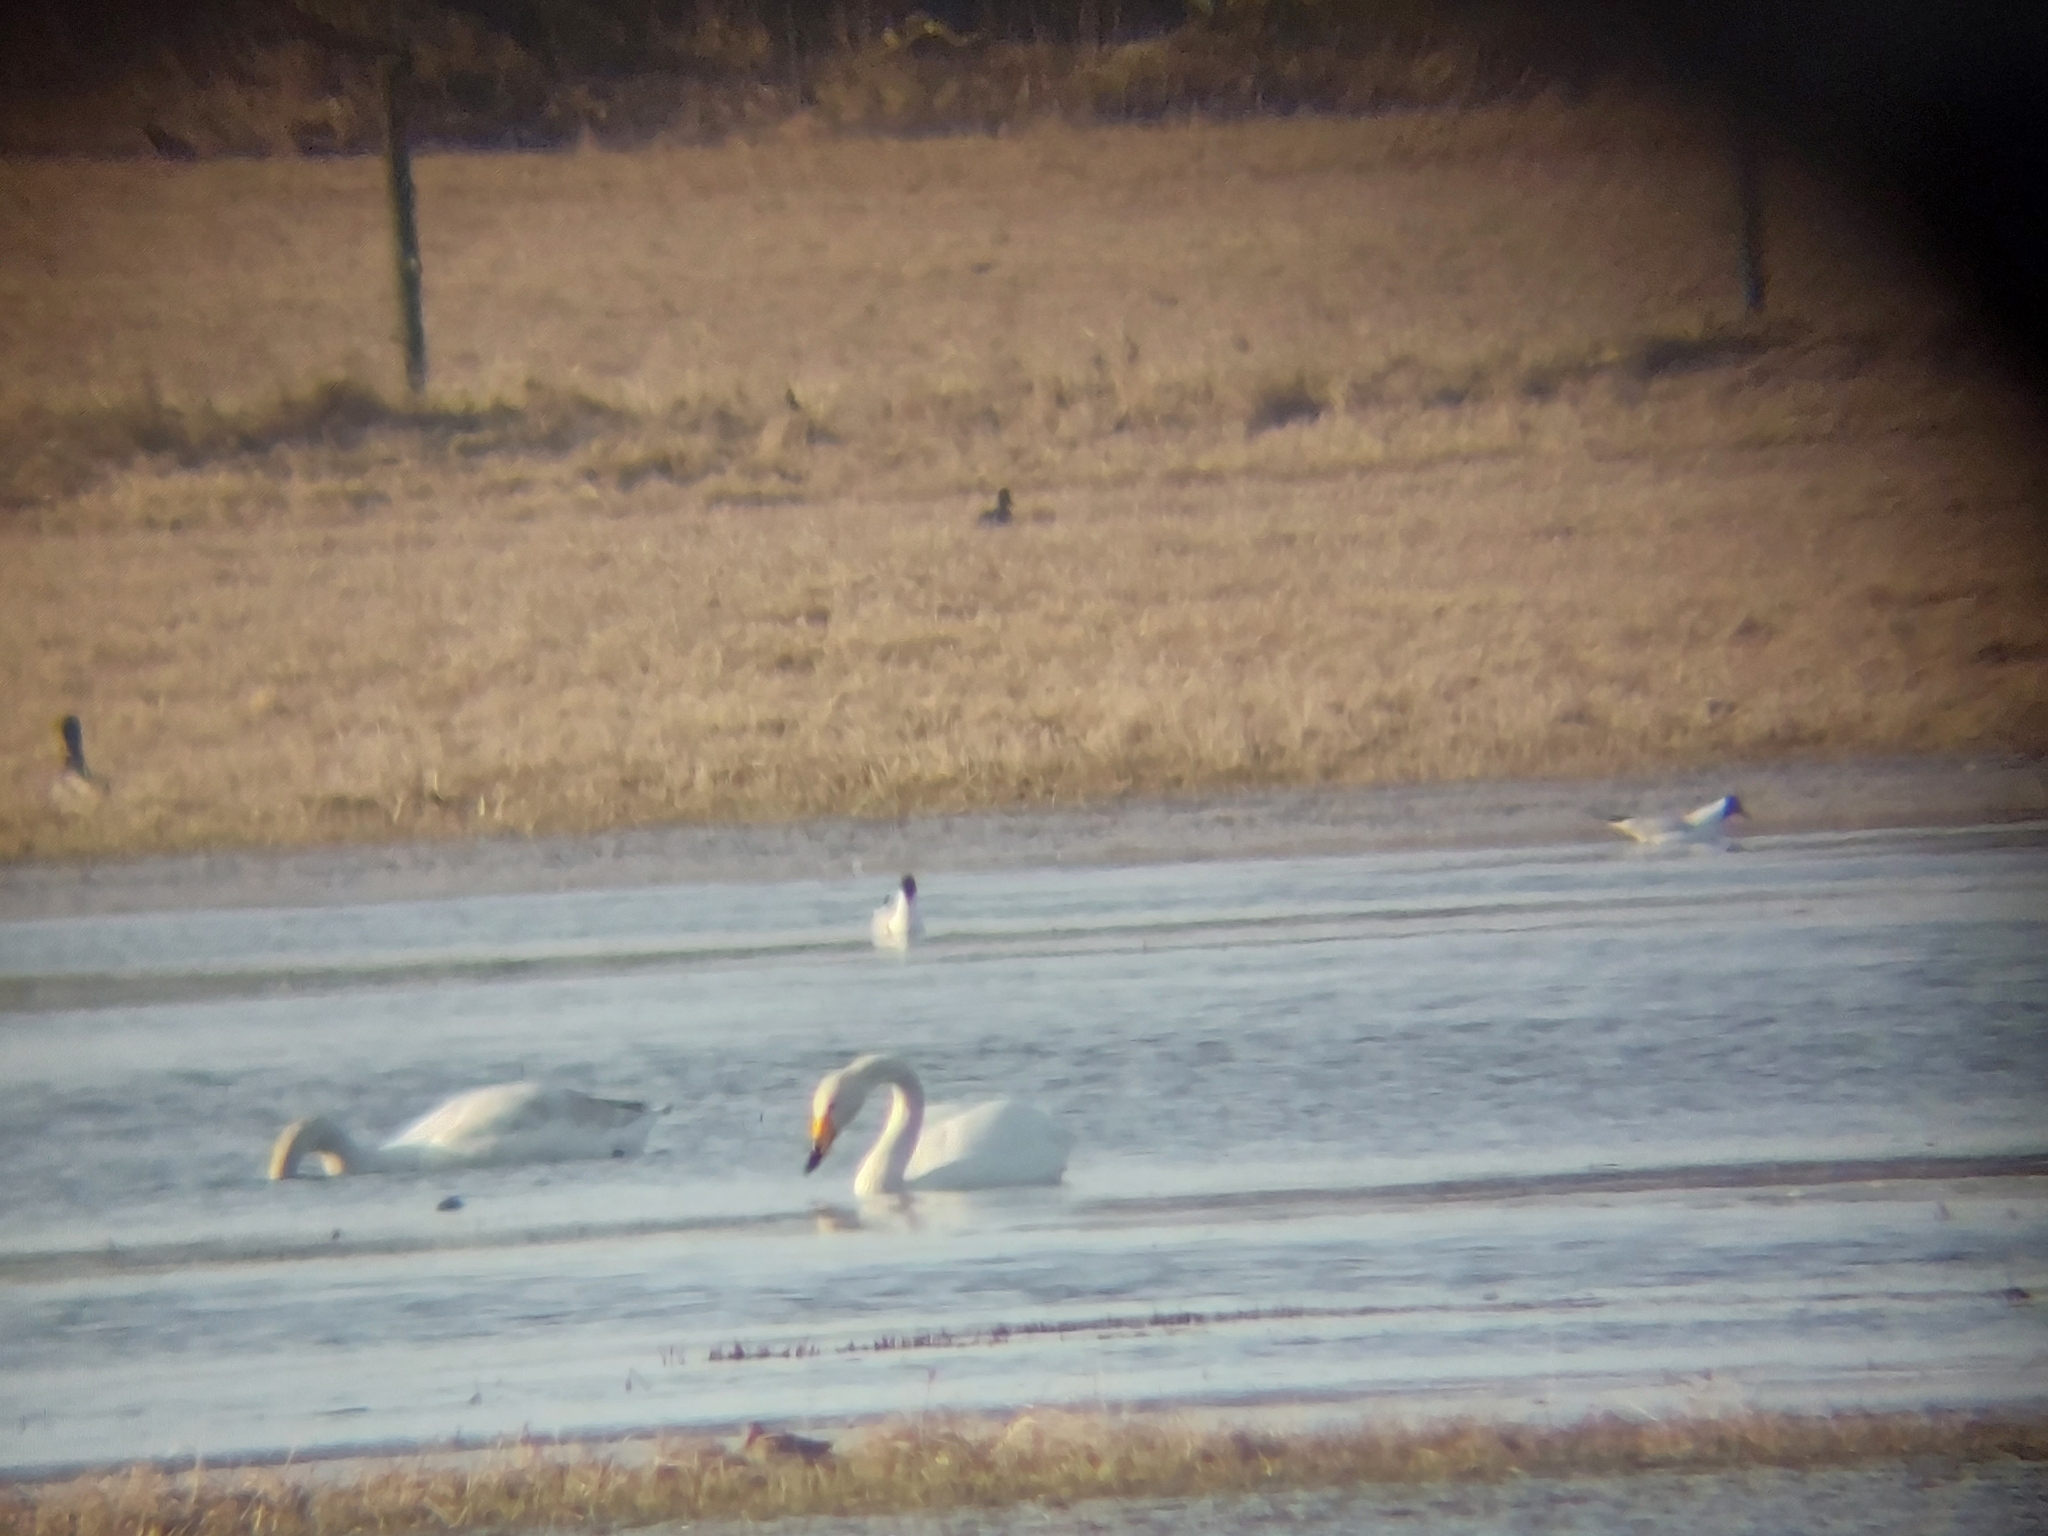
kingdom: Animalia
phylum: Chordata
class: Aves
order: Anseriformes
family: Anatidae
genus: Cygnus
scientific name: Cygnus cygnus
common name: Whooper swan
